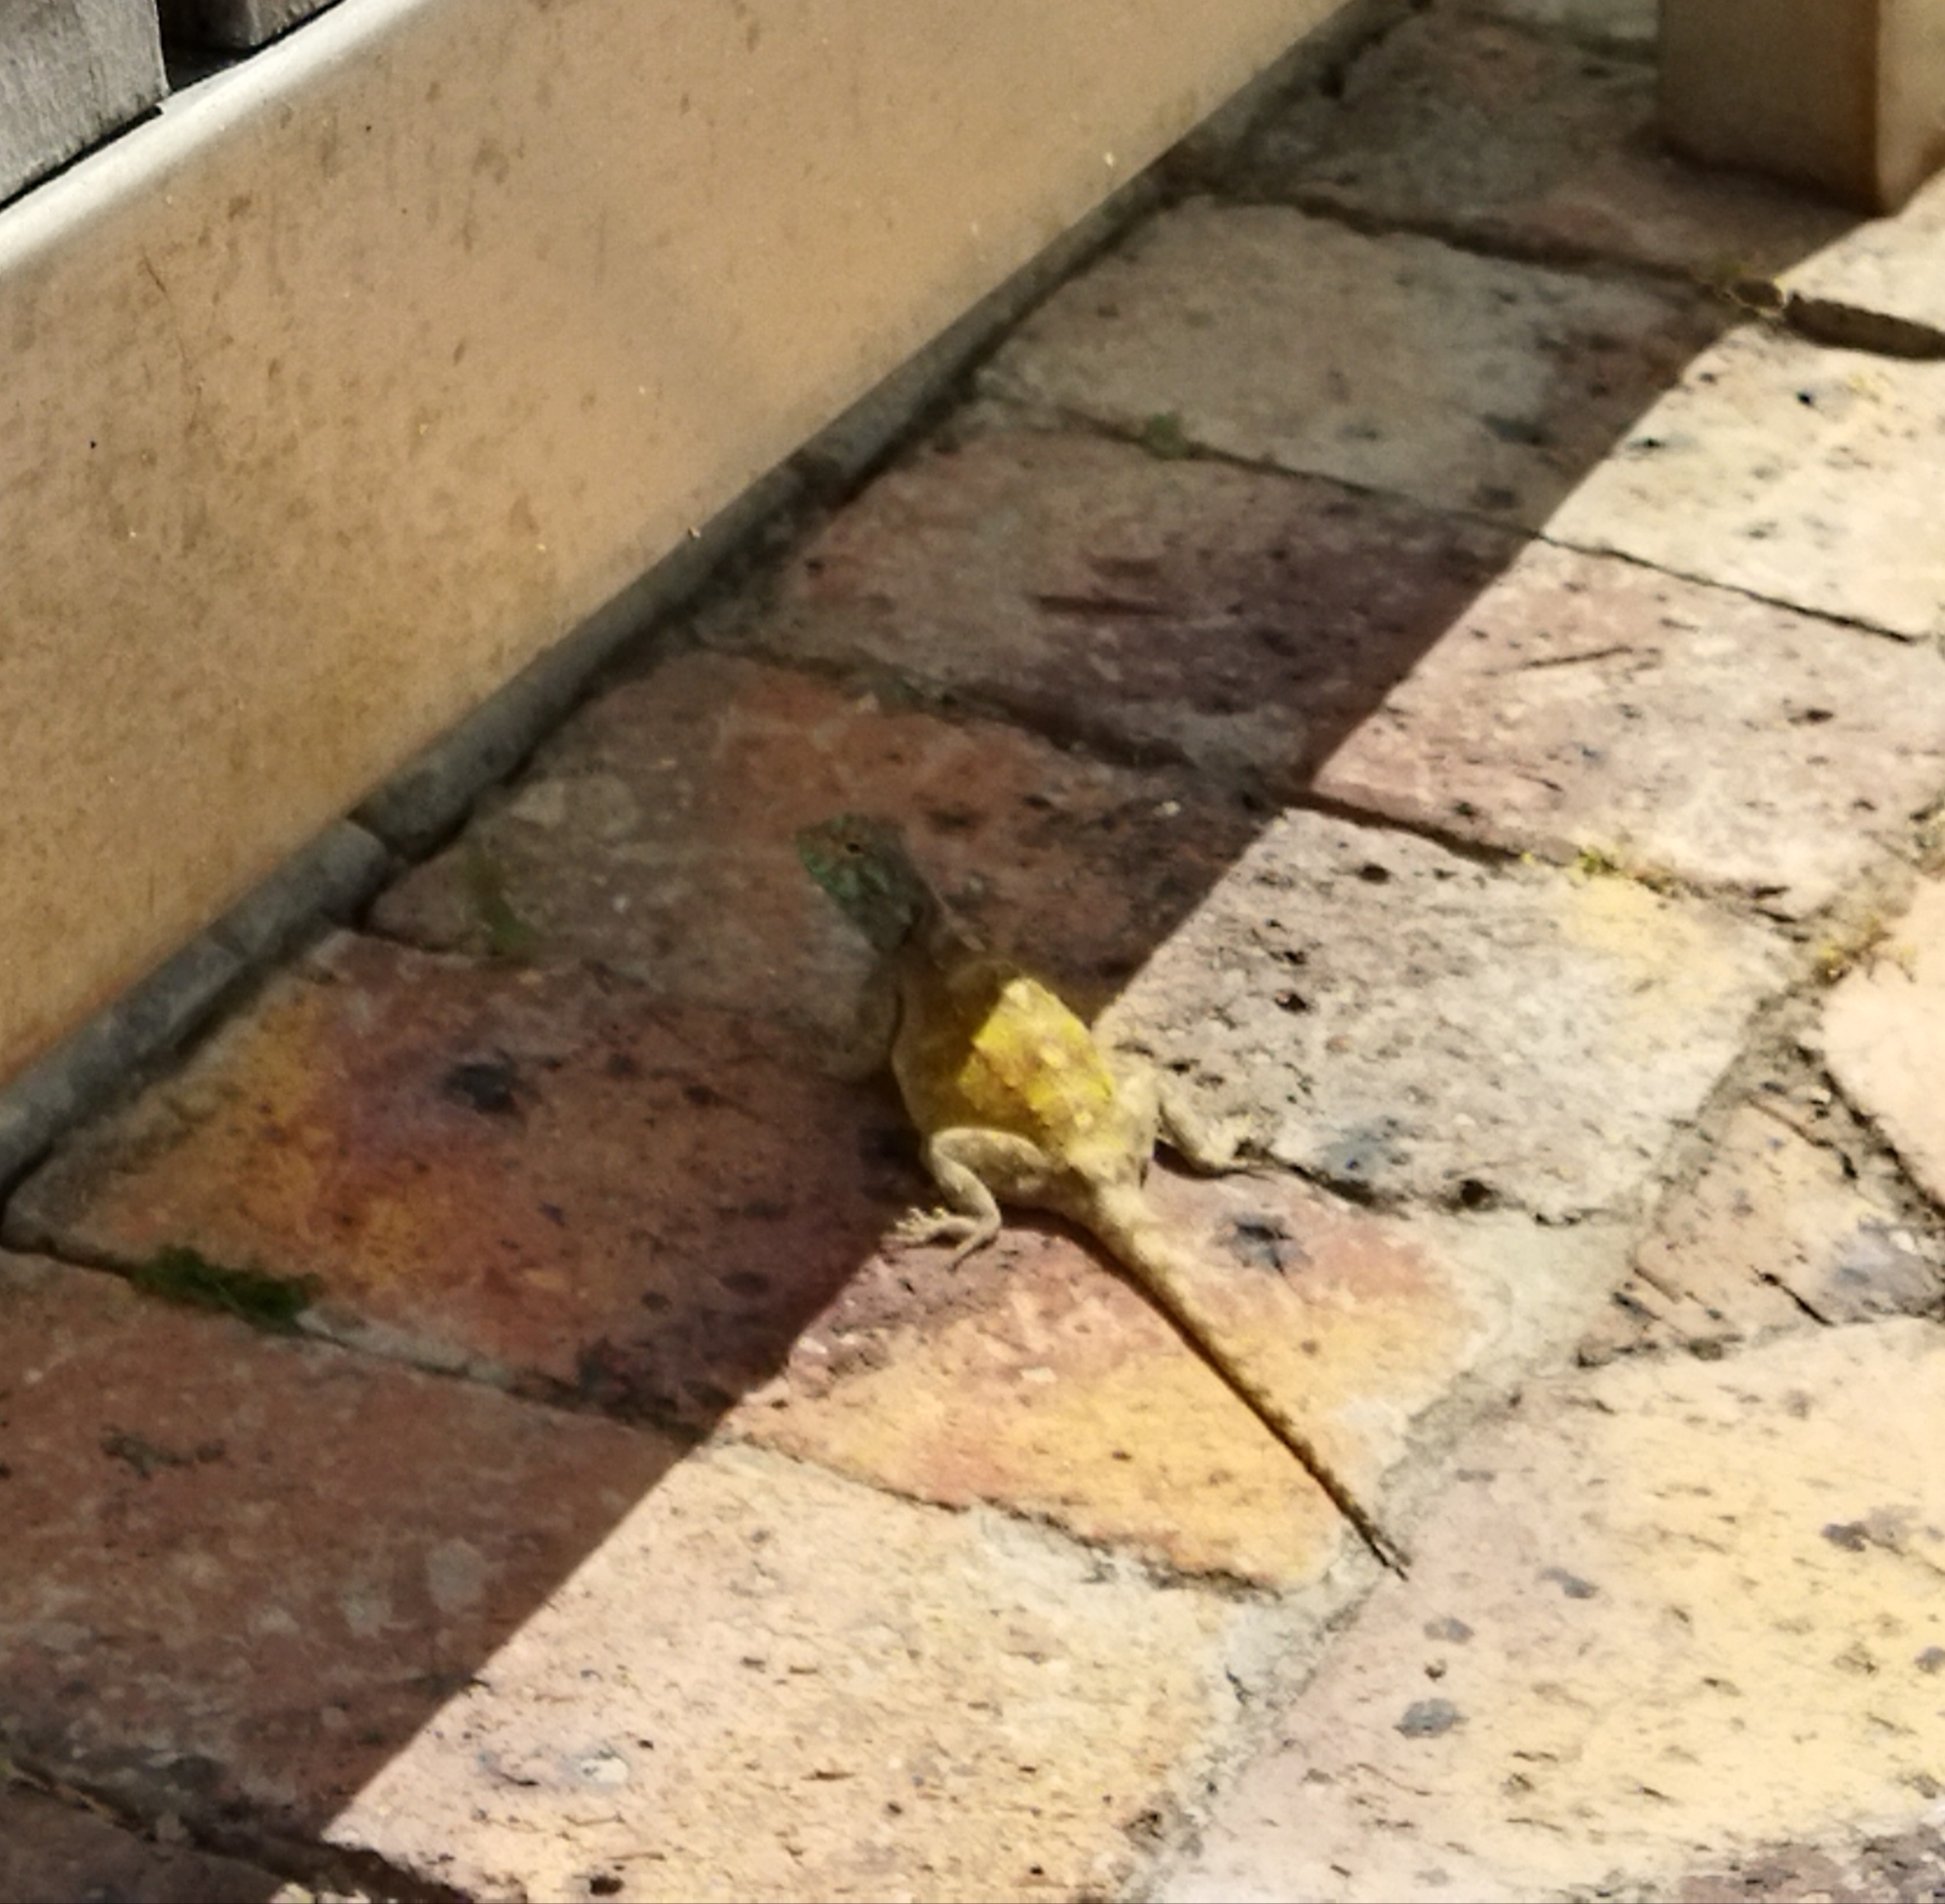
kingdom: Animalia
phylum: Chordata
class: Squamata
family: Agamidae
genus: Agama
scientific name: Agama atra
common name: Southern african rock agama
